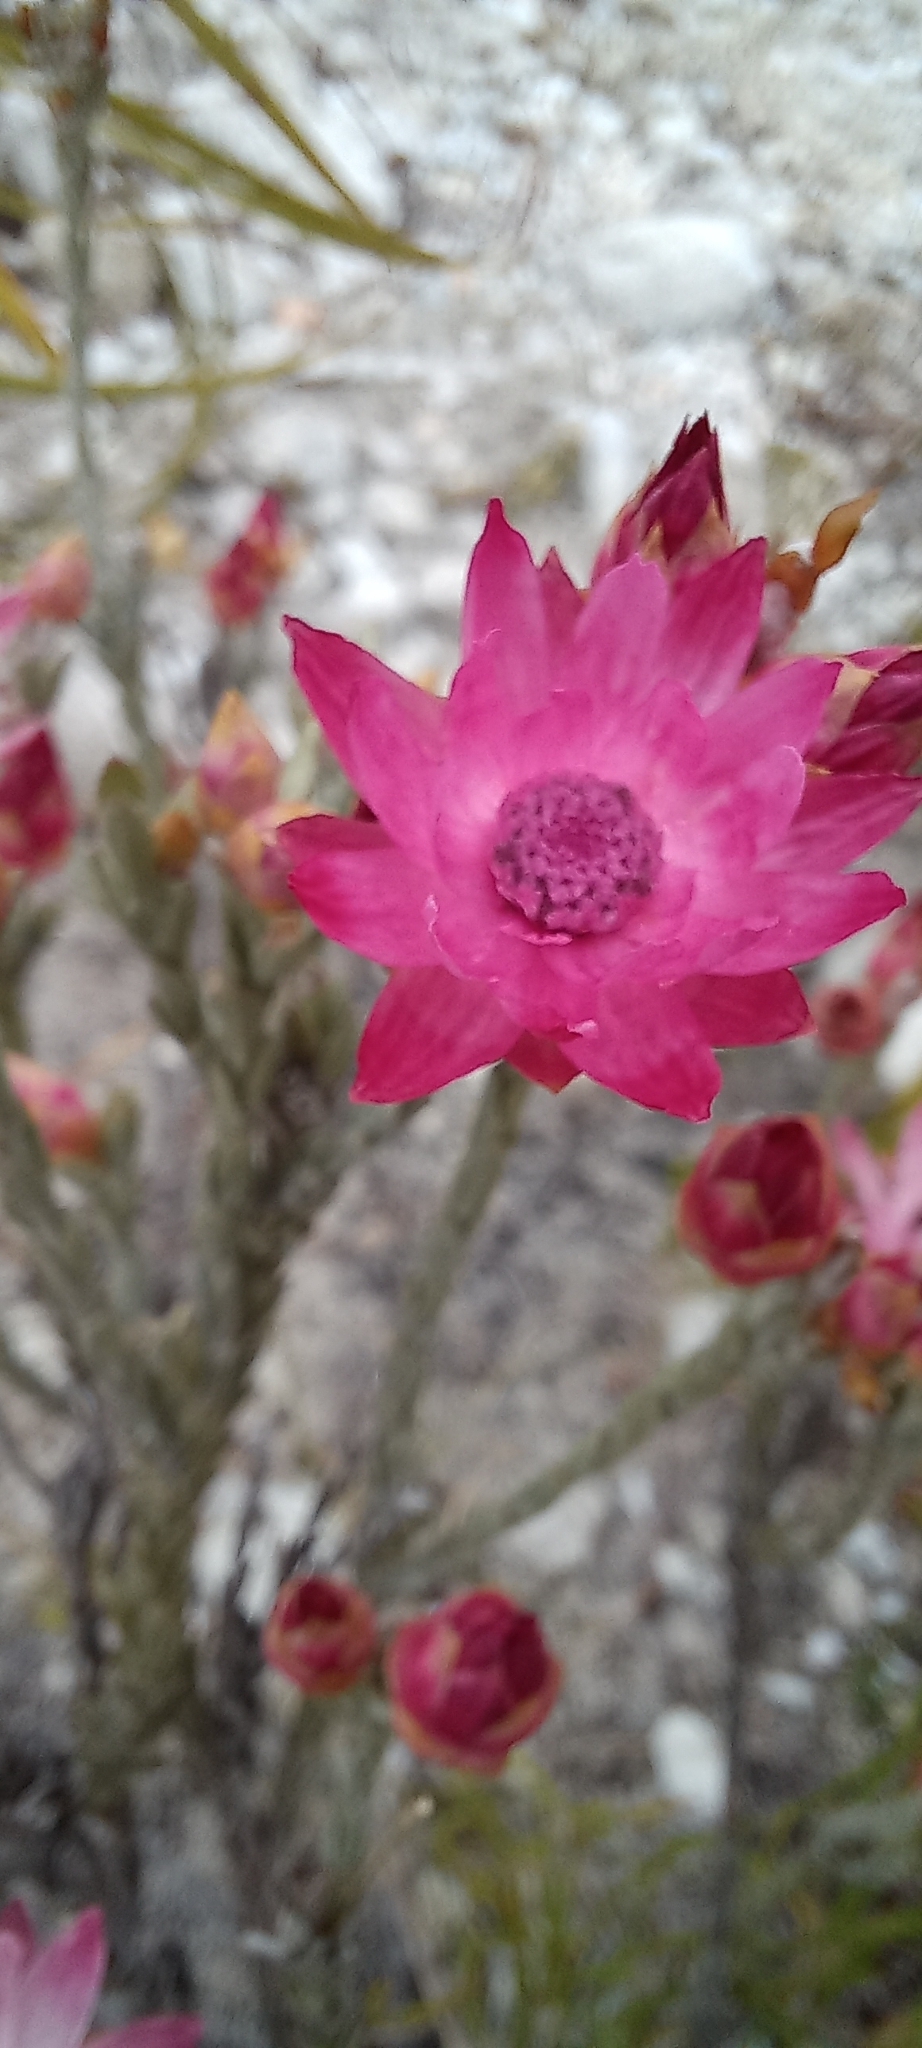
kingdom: Plantae
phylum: Tracheophyta
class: Magnoliopsida
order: Asterales
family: Asteraceae
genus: Syncarpha
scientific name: Syncarpha canescens
